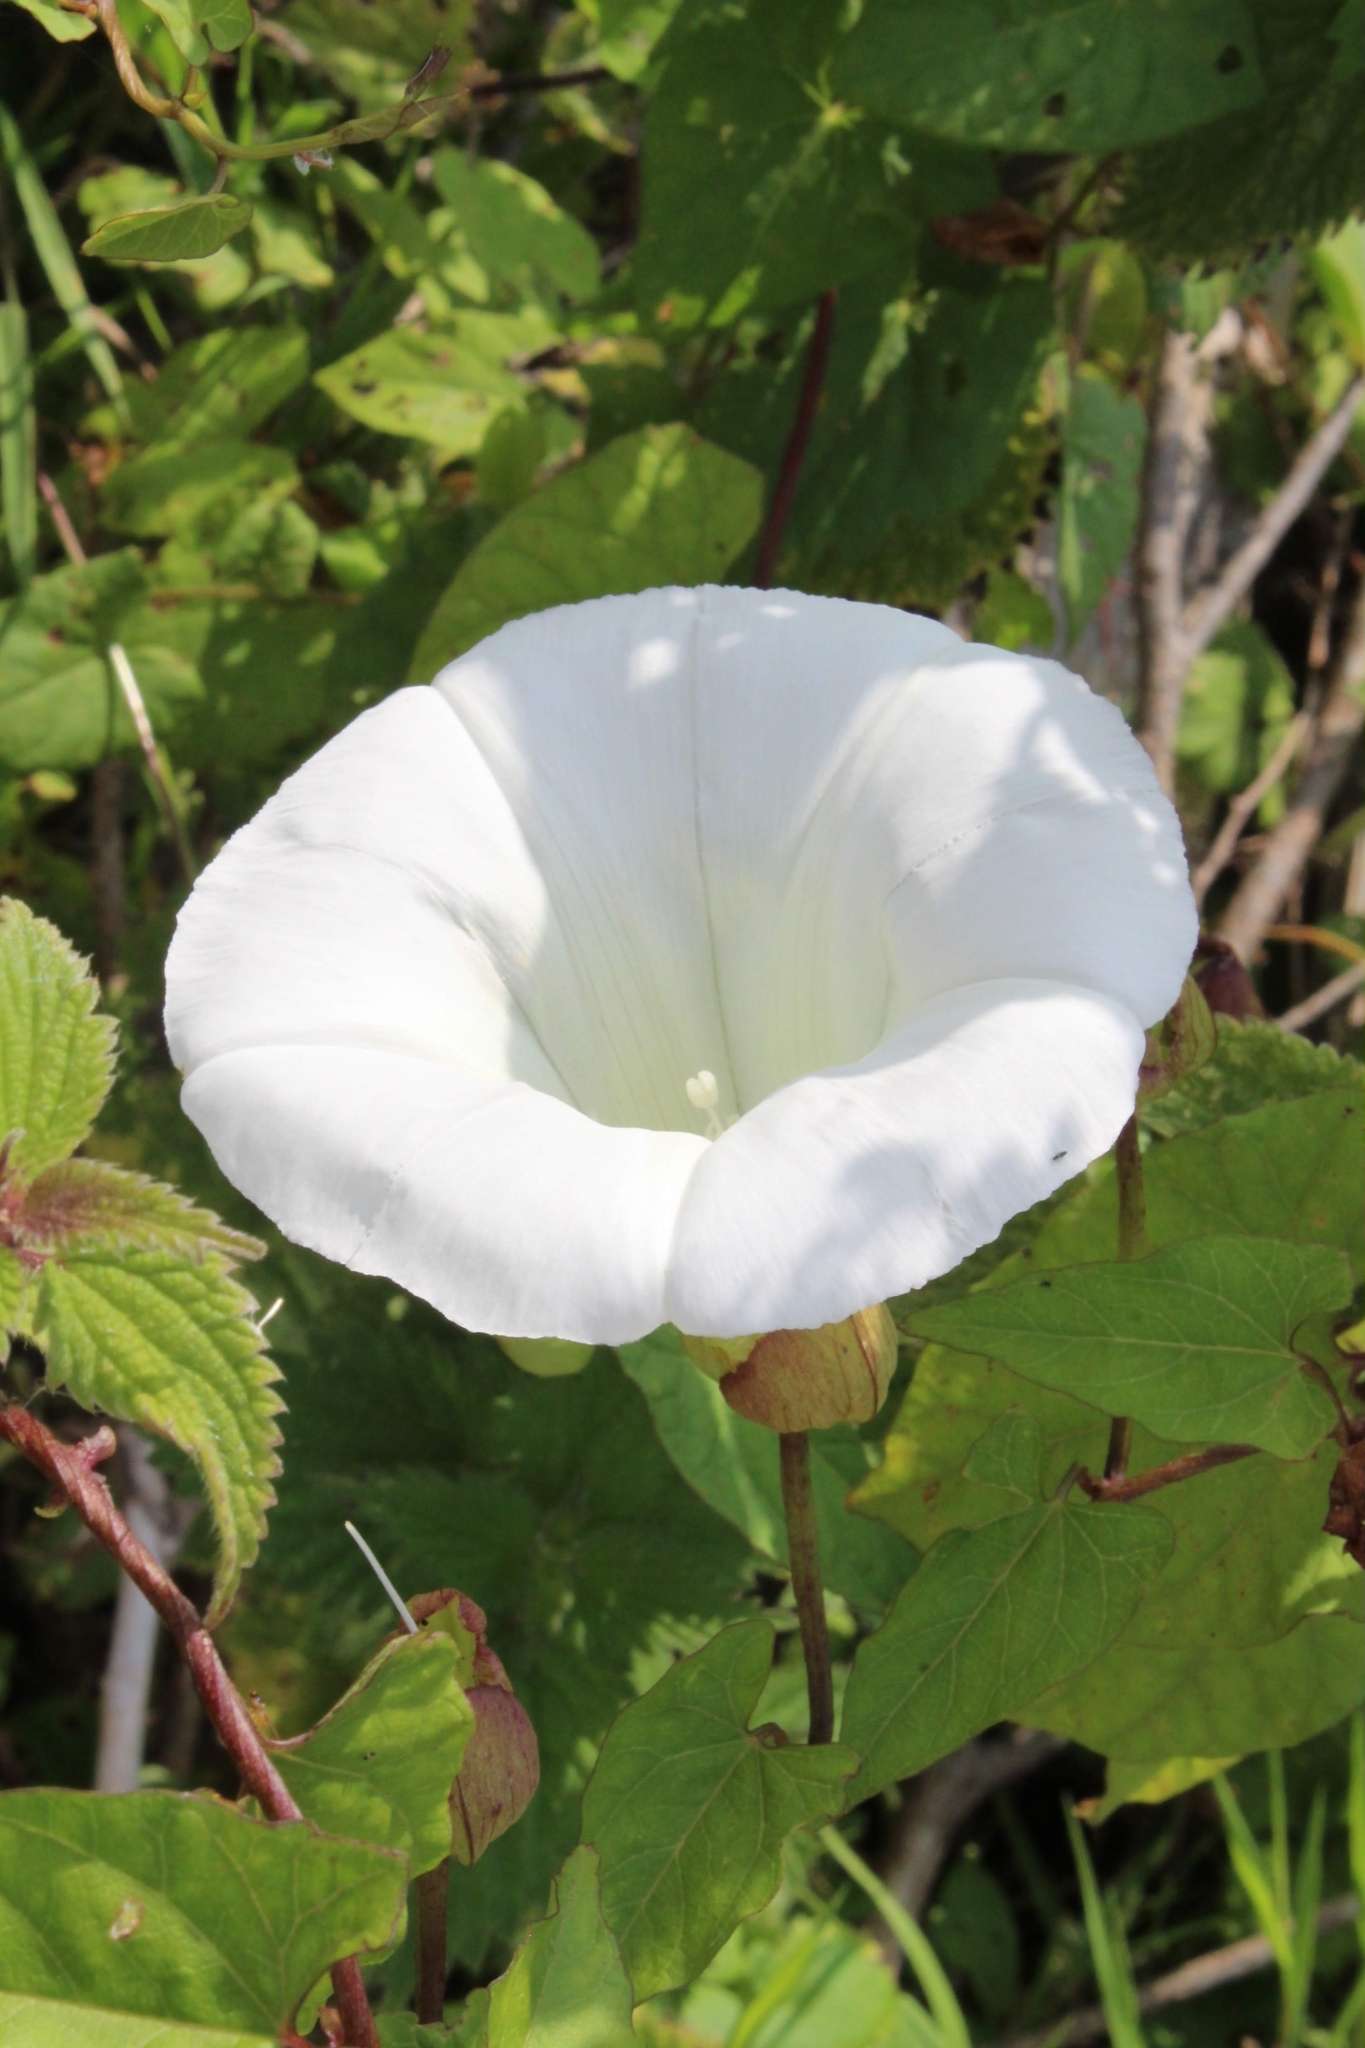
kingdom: Plantae
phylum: Tracheophyta
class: Magnoliopsida
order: Solanales
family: Convolvulaceae
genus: Calystegia
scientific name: Calystegia silvatica
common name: Large bindweed
